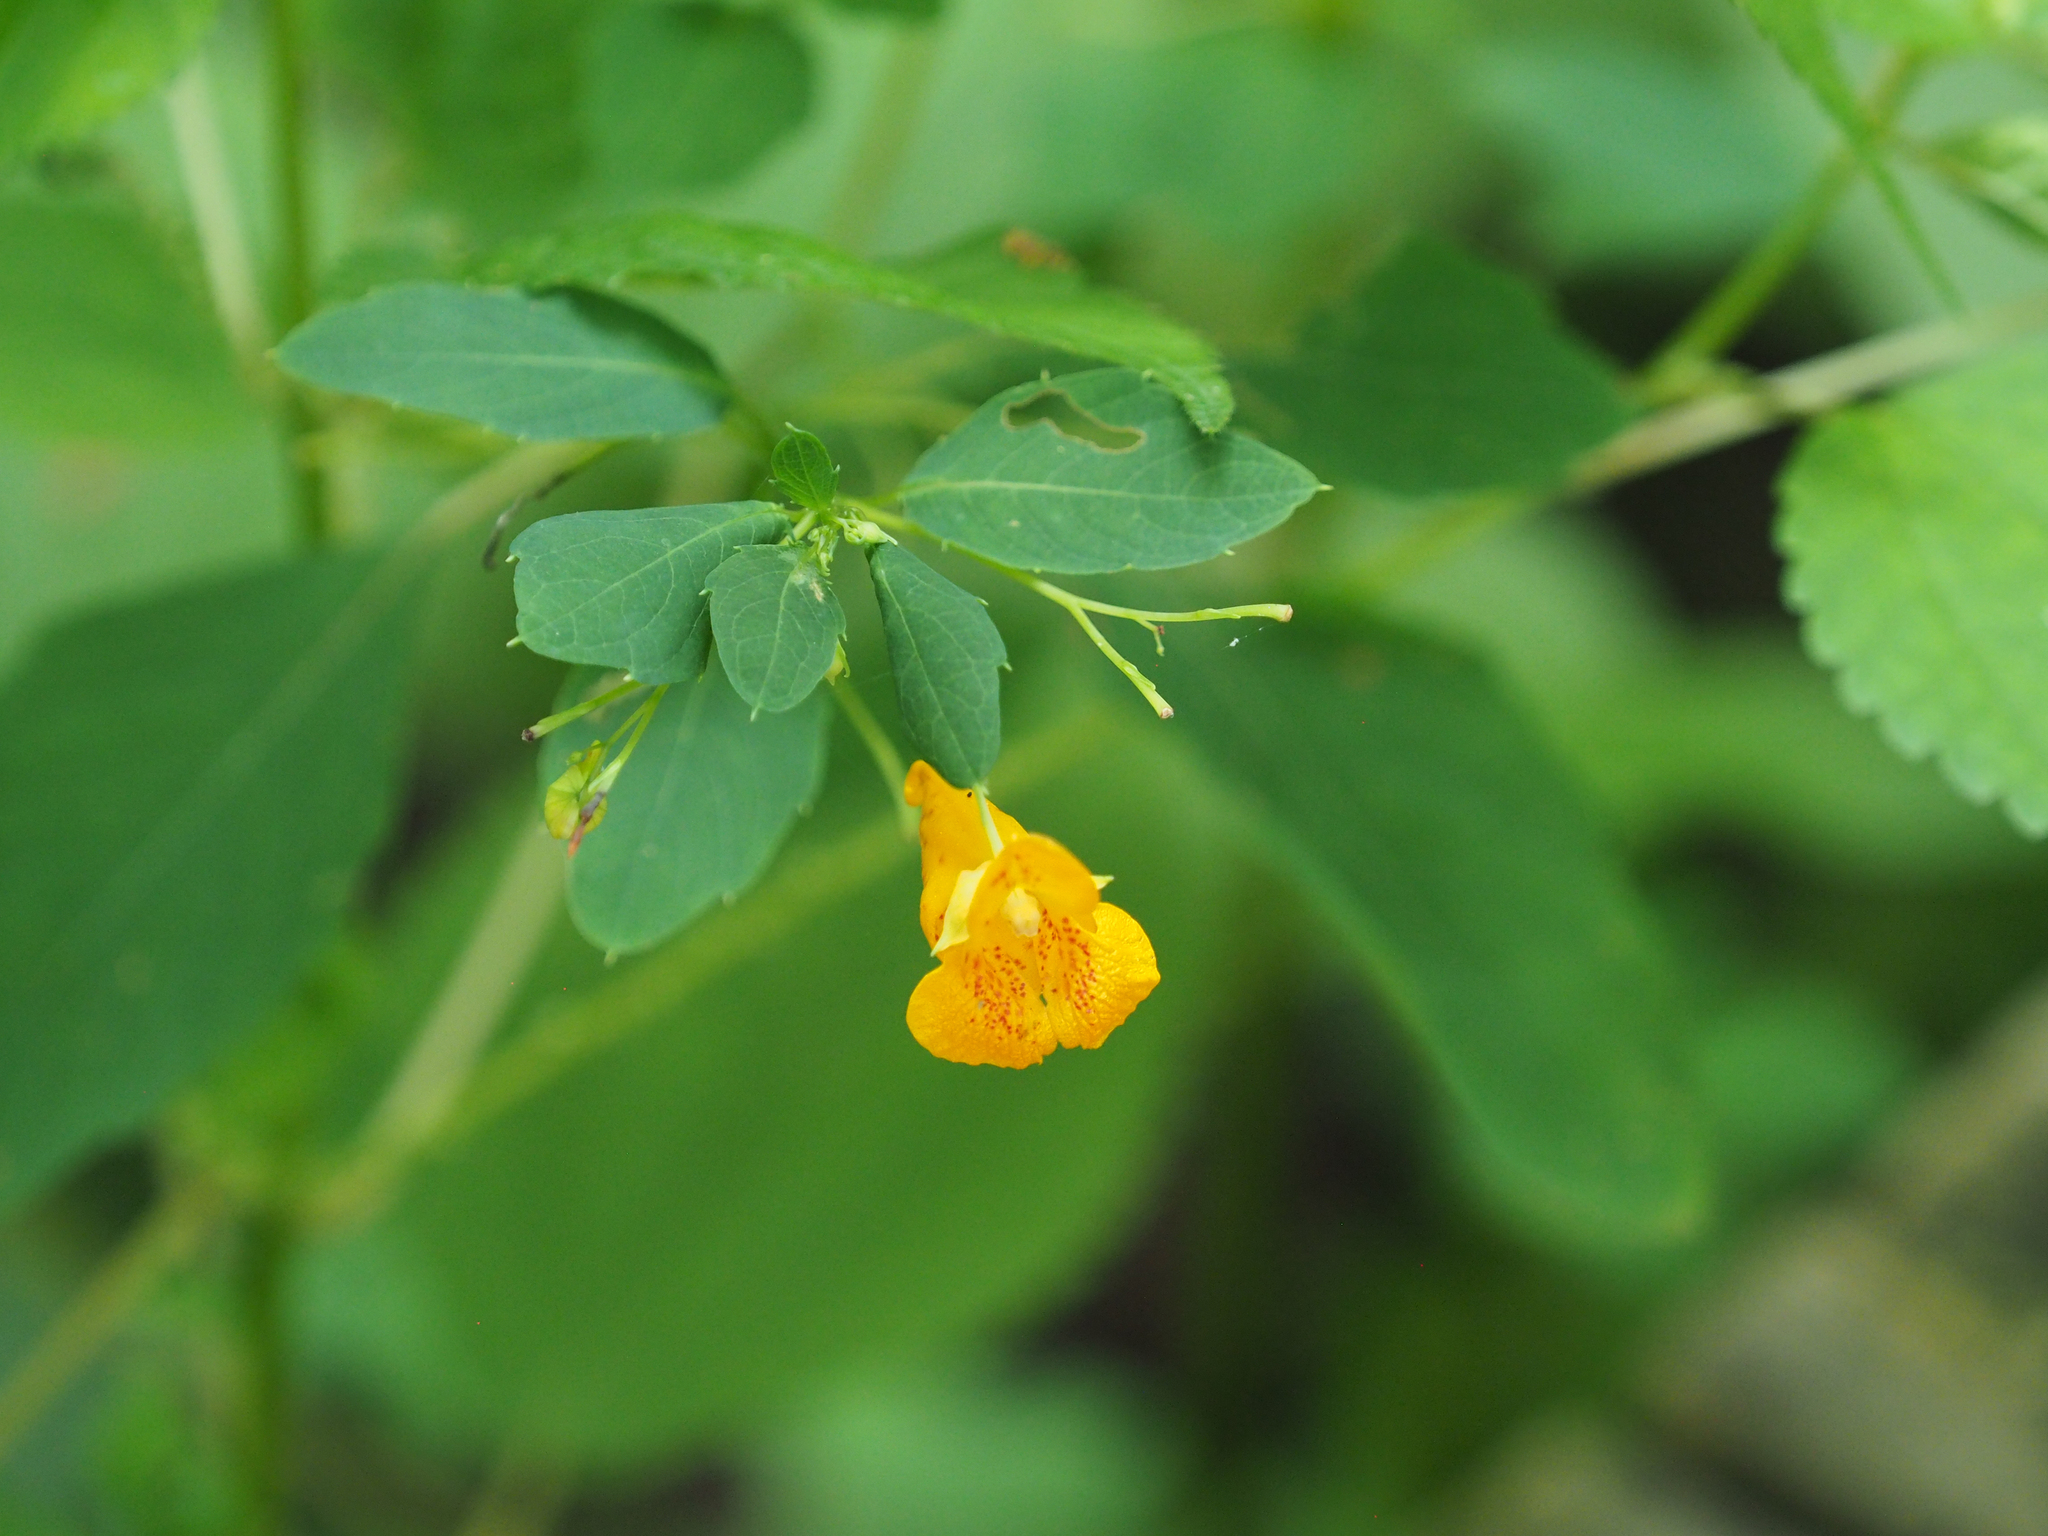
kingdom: Plantae
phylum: Tracheophyta
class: Magnoliopsida
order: Ericales
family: Balsaminaceae
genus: Impatiens
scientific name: Impatiens capensis
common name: Orange balsam
